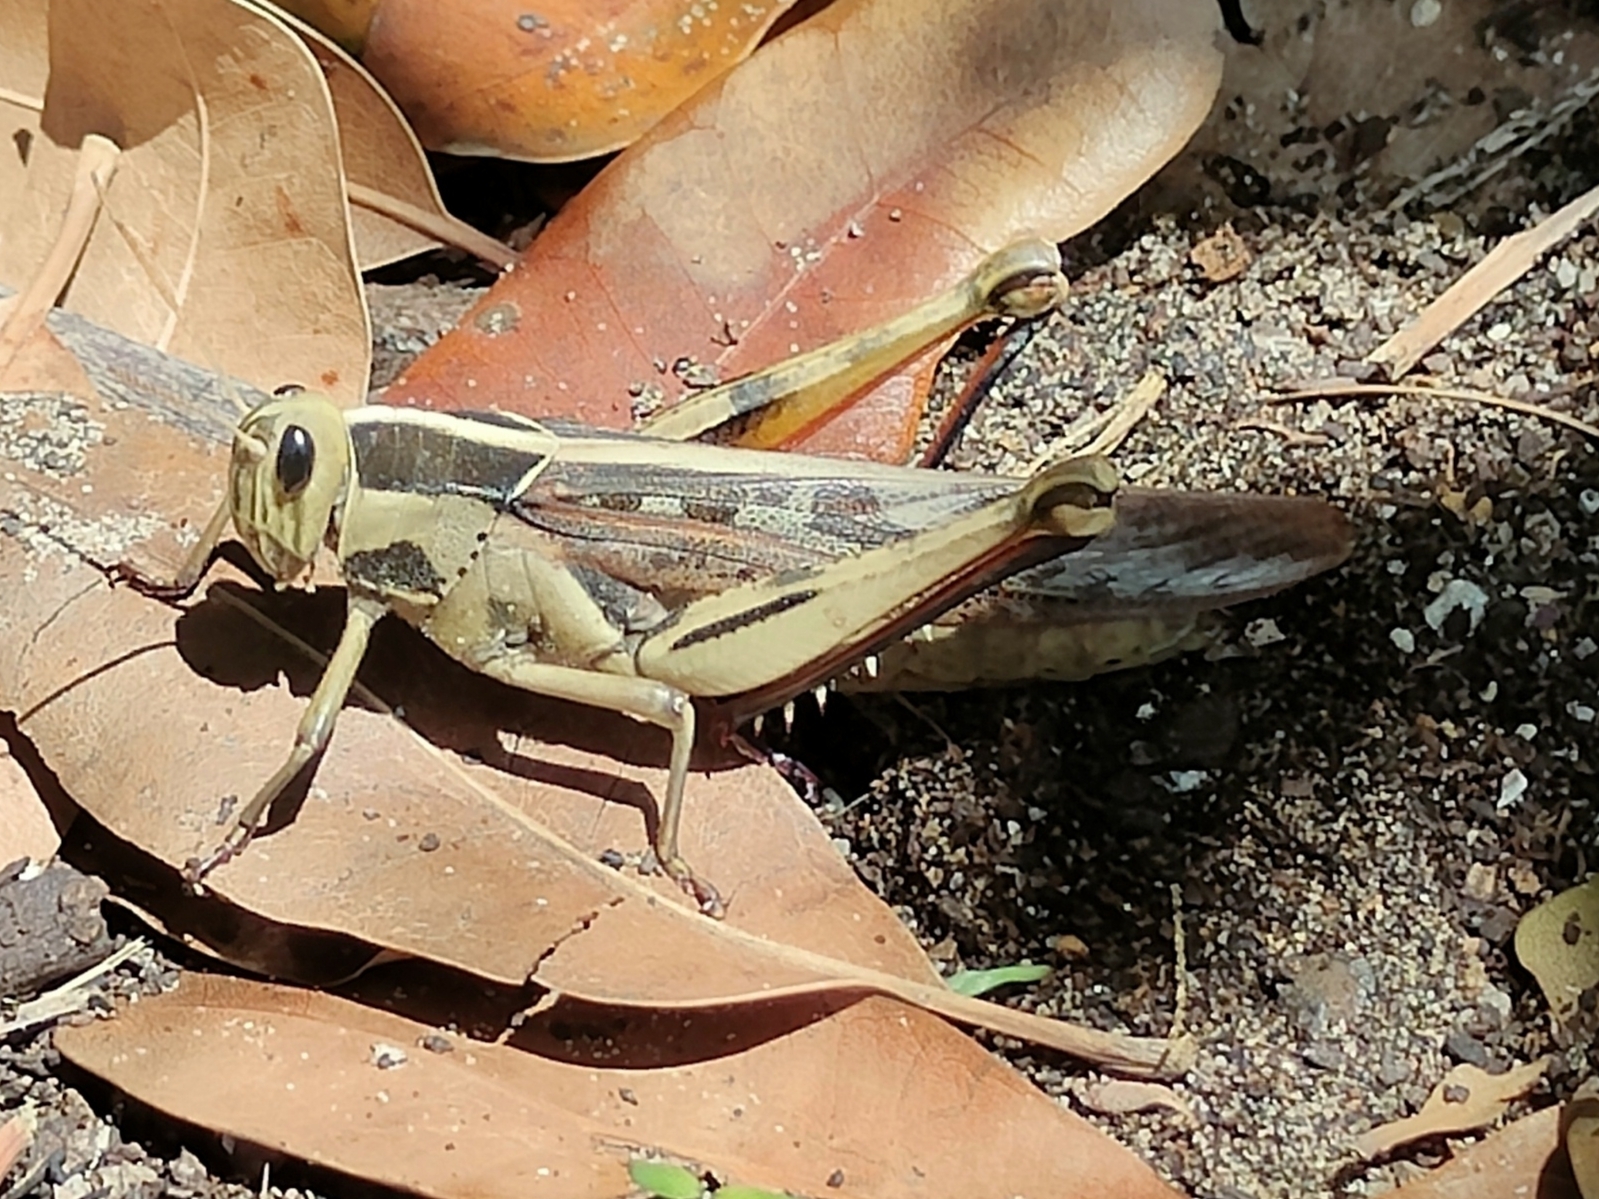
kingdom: Animalia
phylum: Arthropoda
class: Insecta
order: Orthoptera
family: Acrididae
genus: Acanthacris
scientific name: Acanthacris ruficornis
